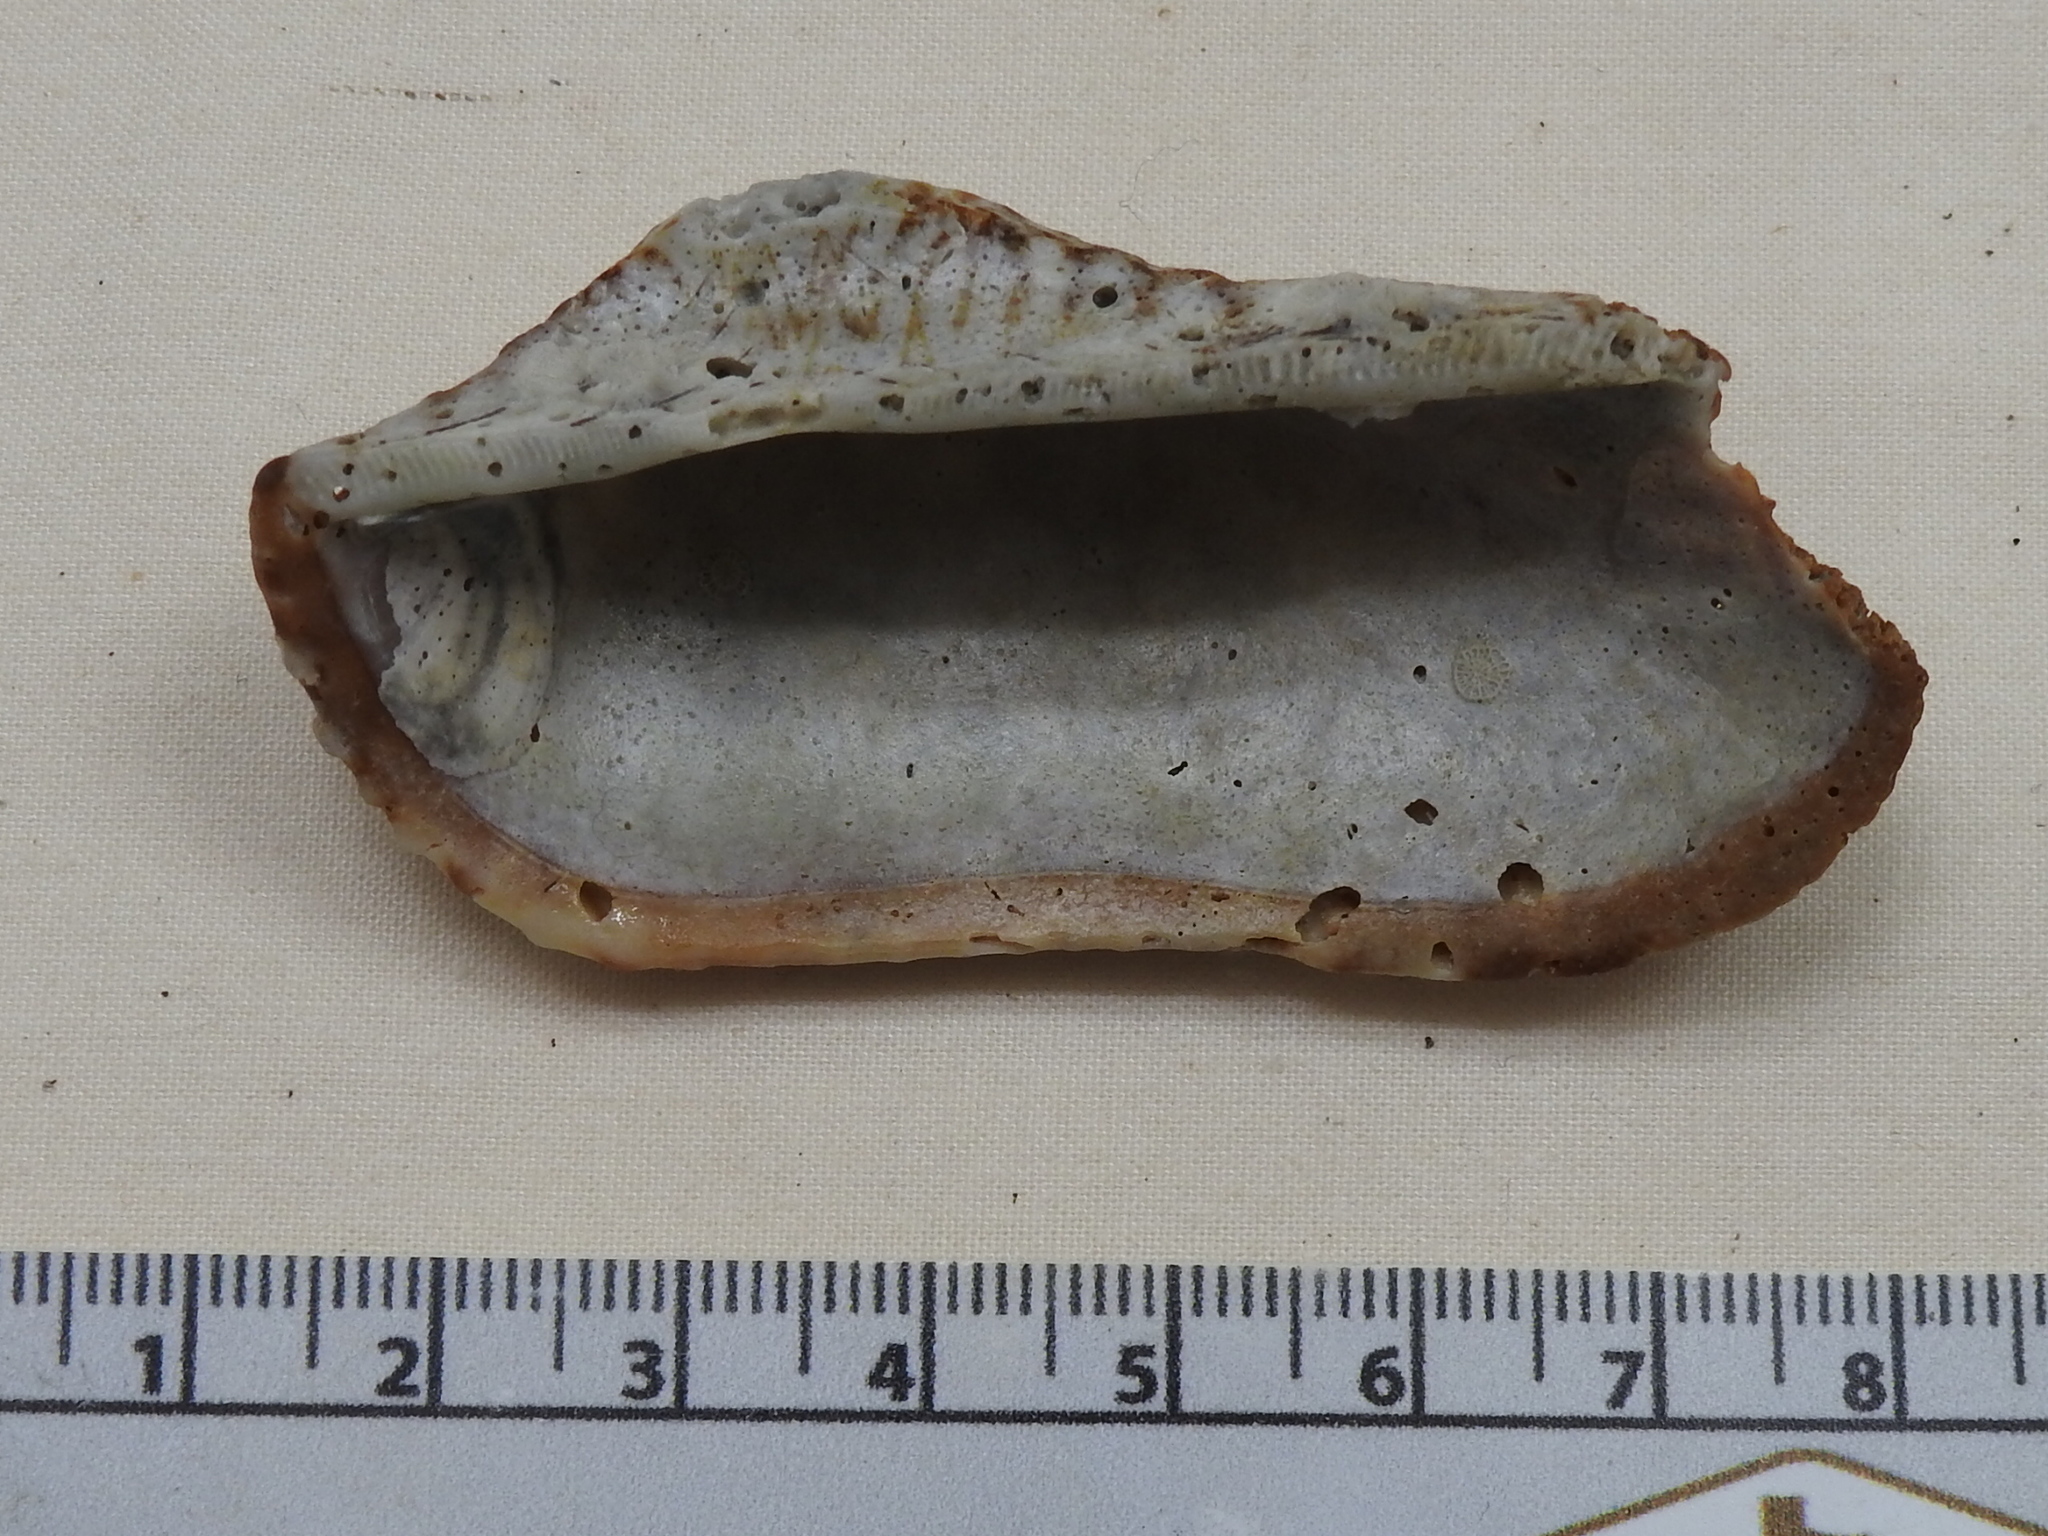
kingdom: Animalia
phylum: Mollusca
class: Bivalvia
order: Arcida
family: Arcidae
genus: Arca
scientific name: Arca zebra
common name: Atlantic turkey wing
